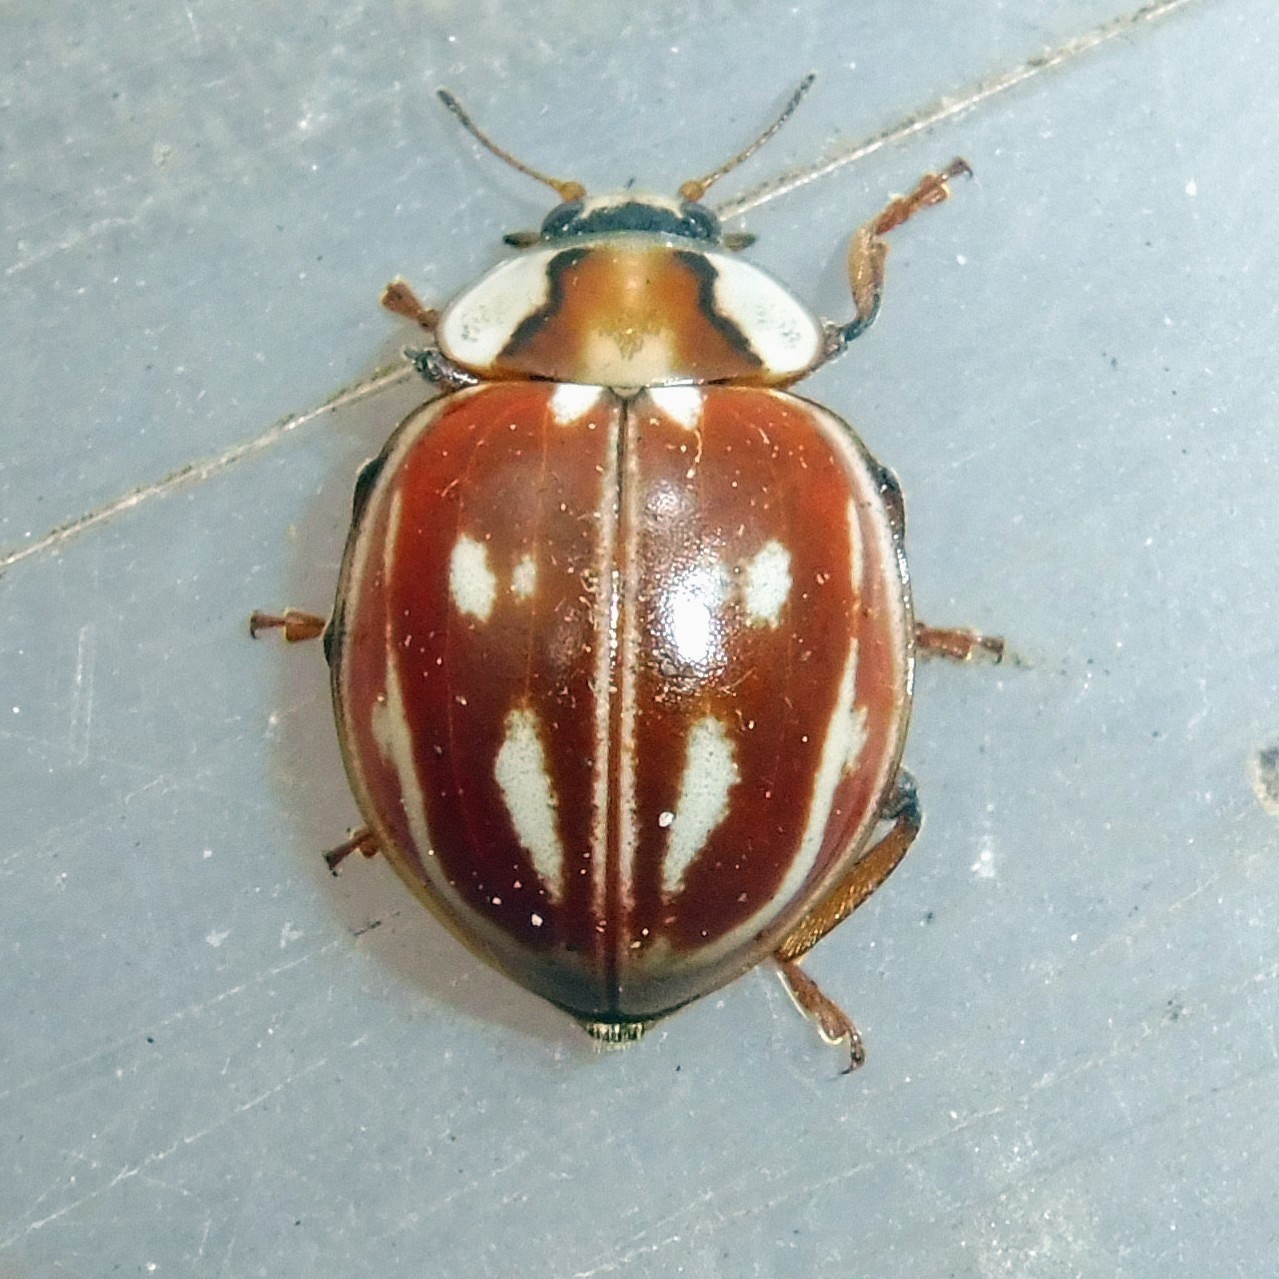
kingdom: Animalia
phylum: Arthropoda
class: Insecta
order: Coleoptera
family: Coccinellidae
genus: Myzia
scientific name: Myzia oblongoguttata
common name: Striped ladybird
